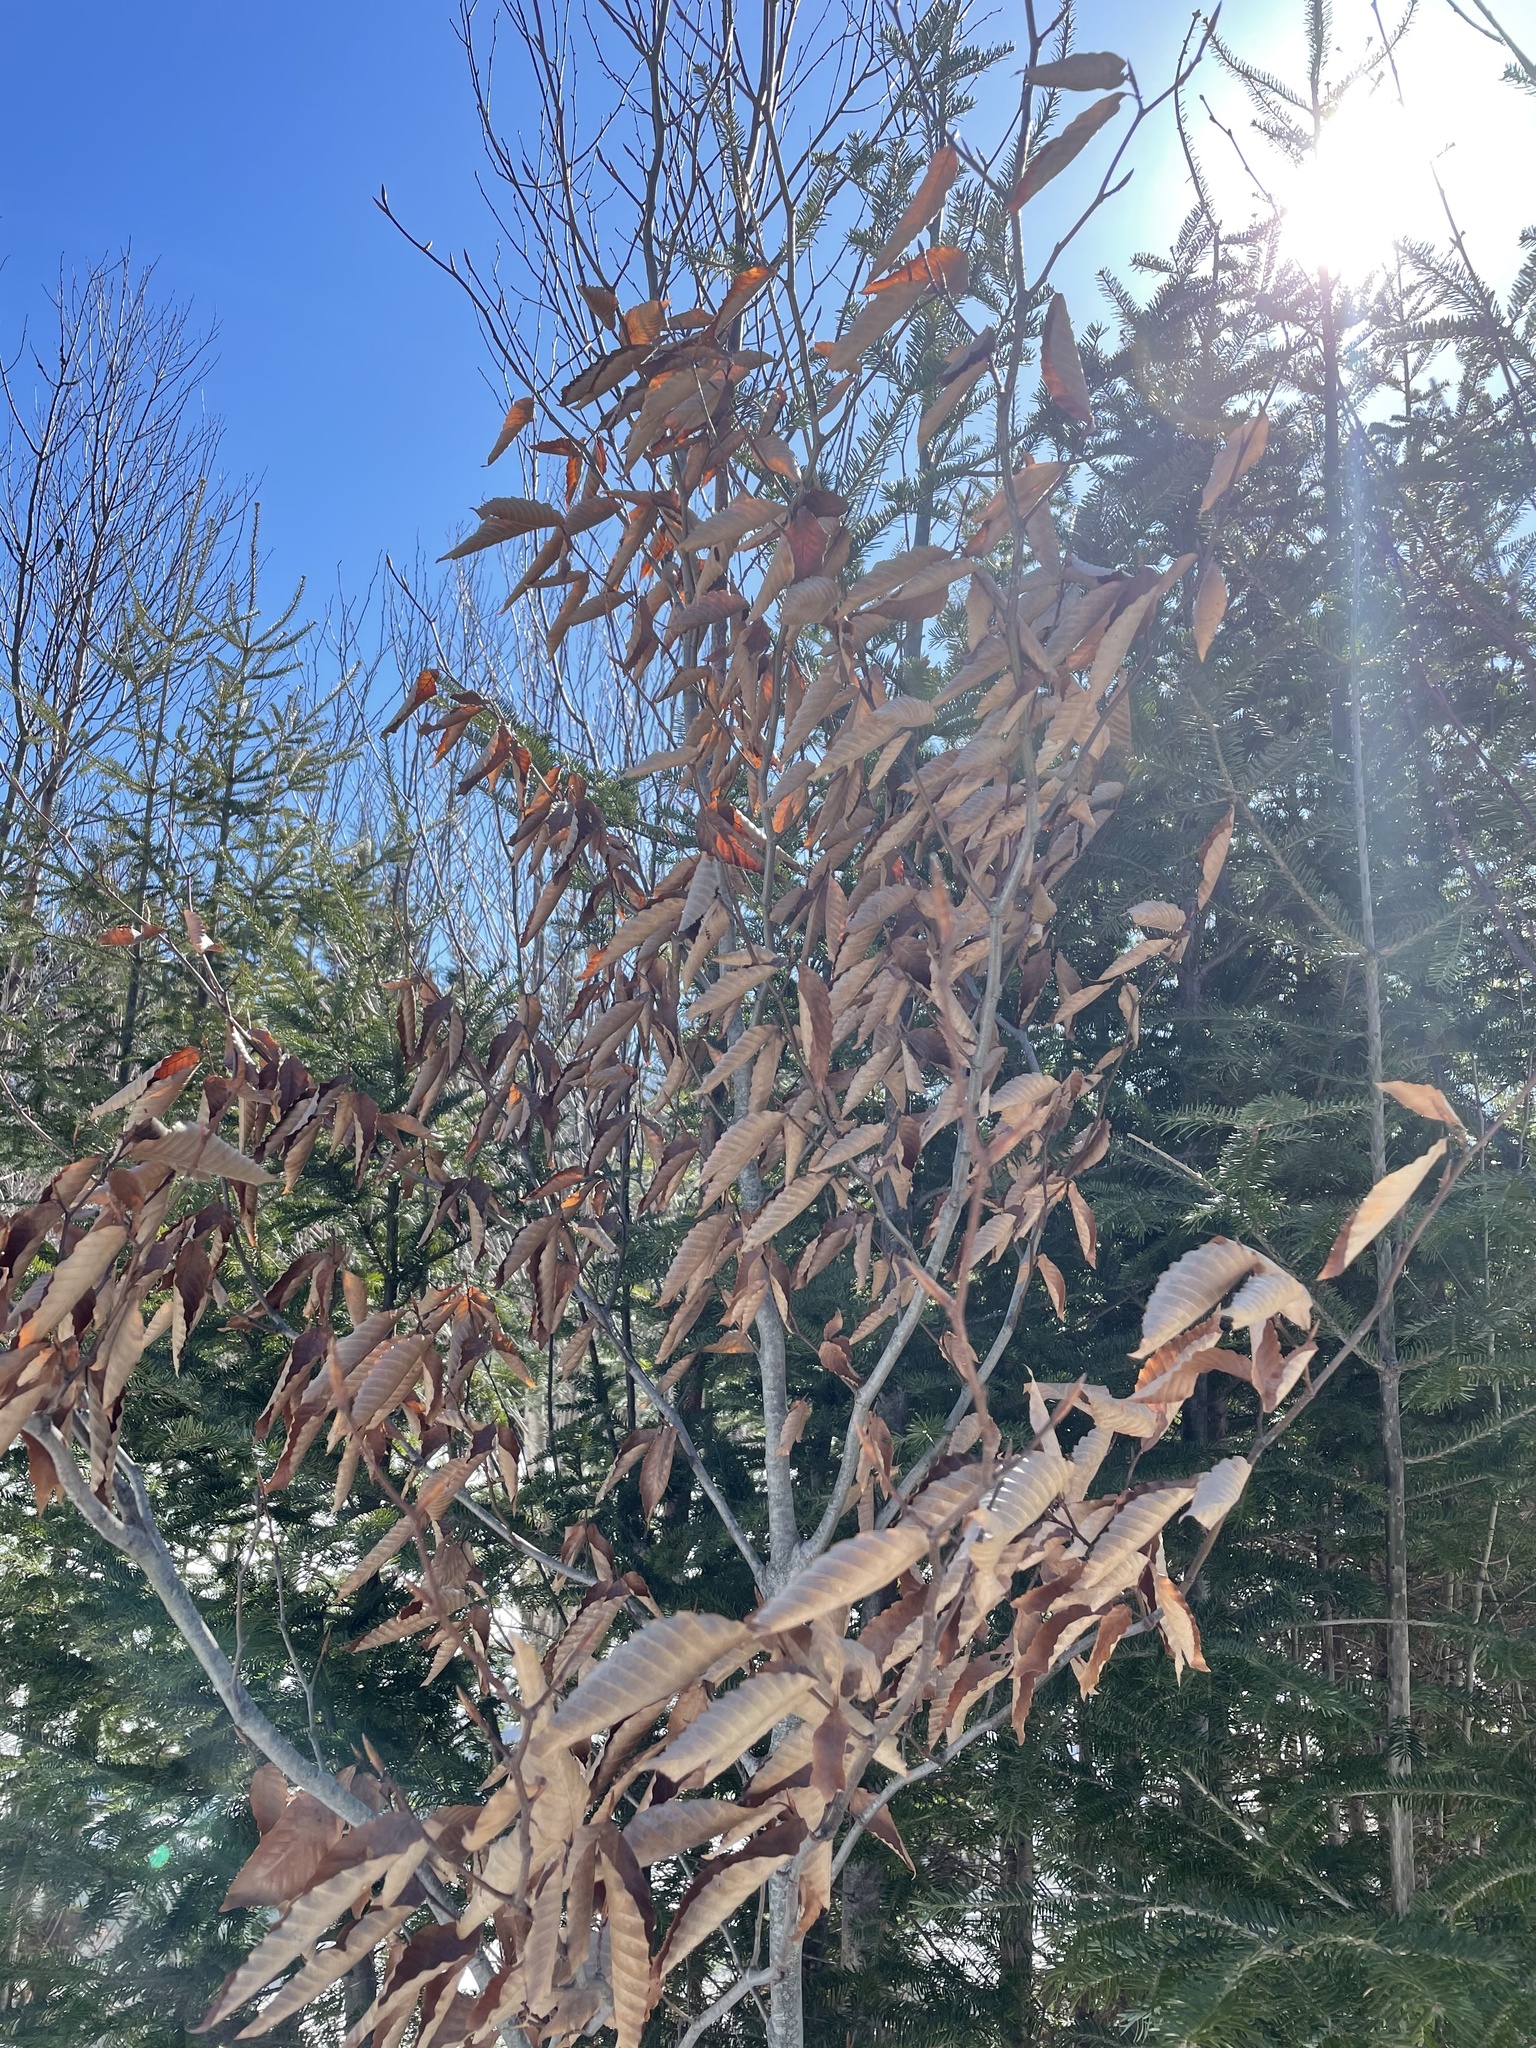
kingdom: Plantae
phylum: Tracheophyta
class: Magnoliopsida
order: Fagales
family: Fagaceae
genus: Fagus
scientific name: Fagus grandifolia
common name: American beech
